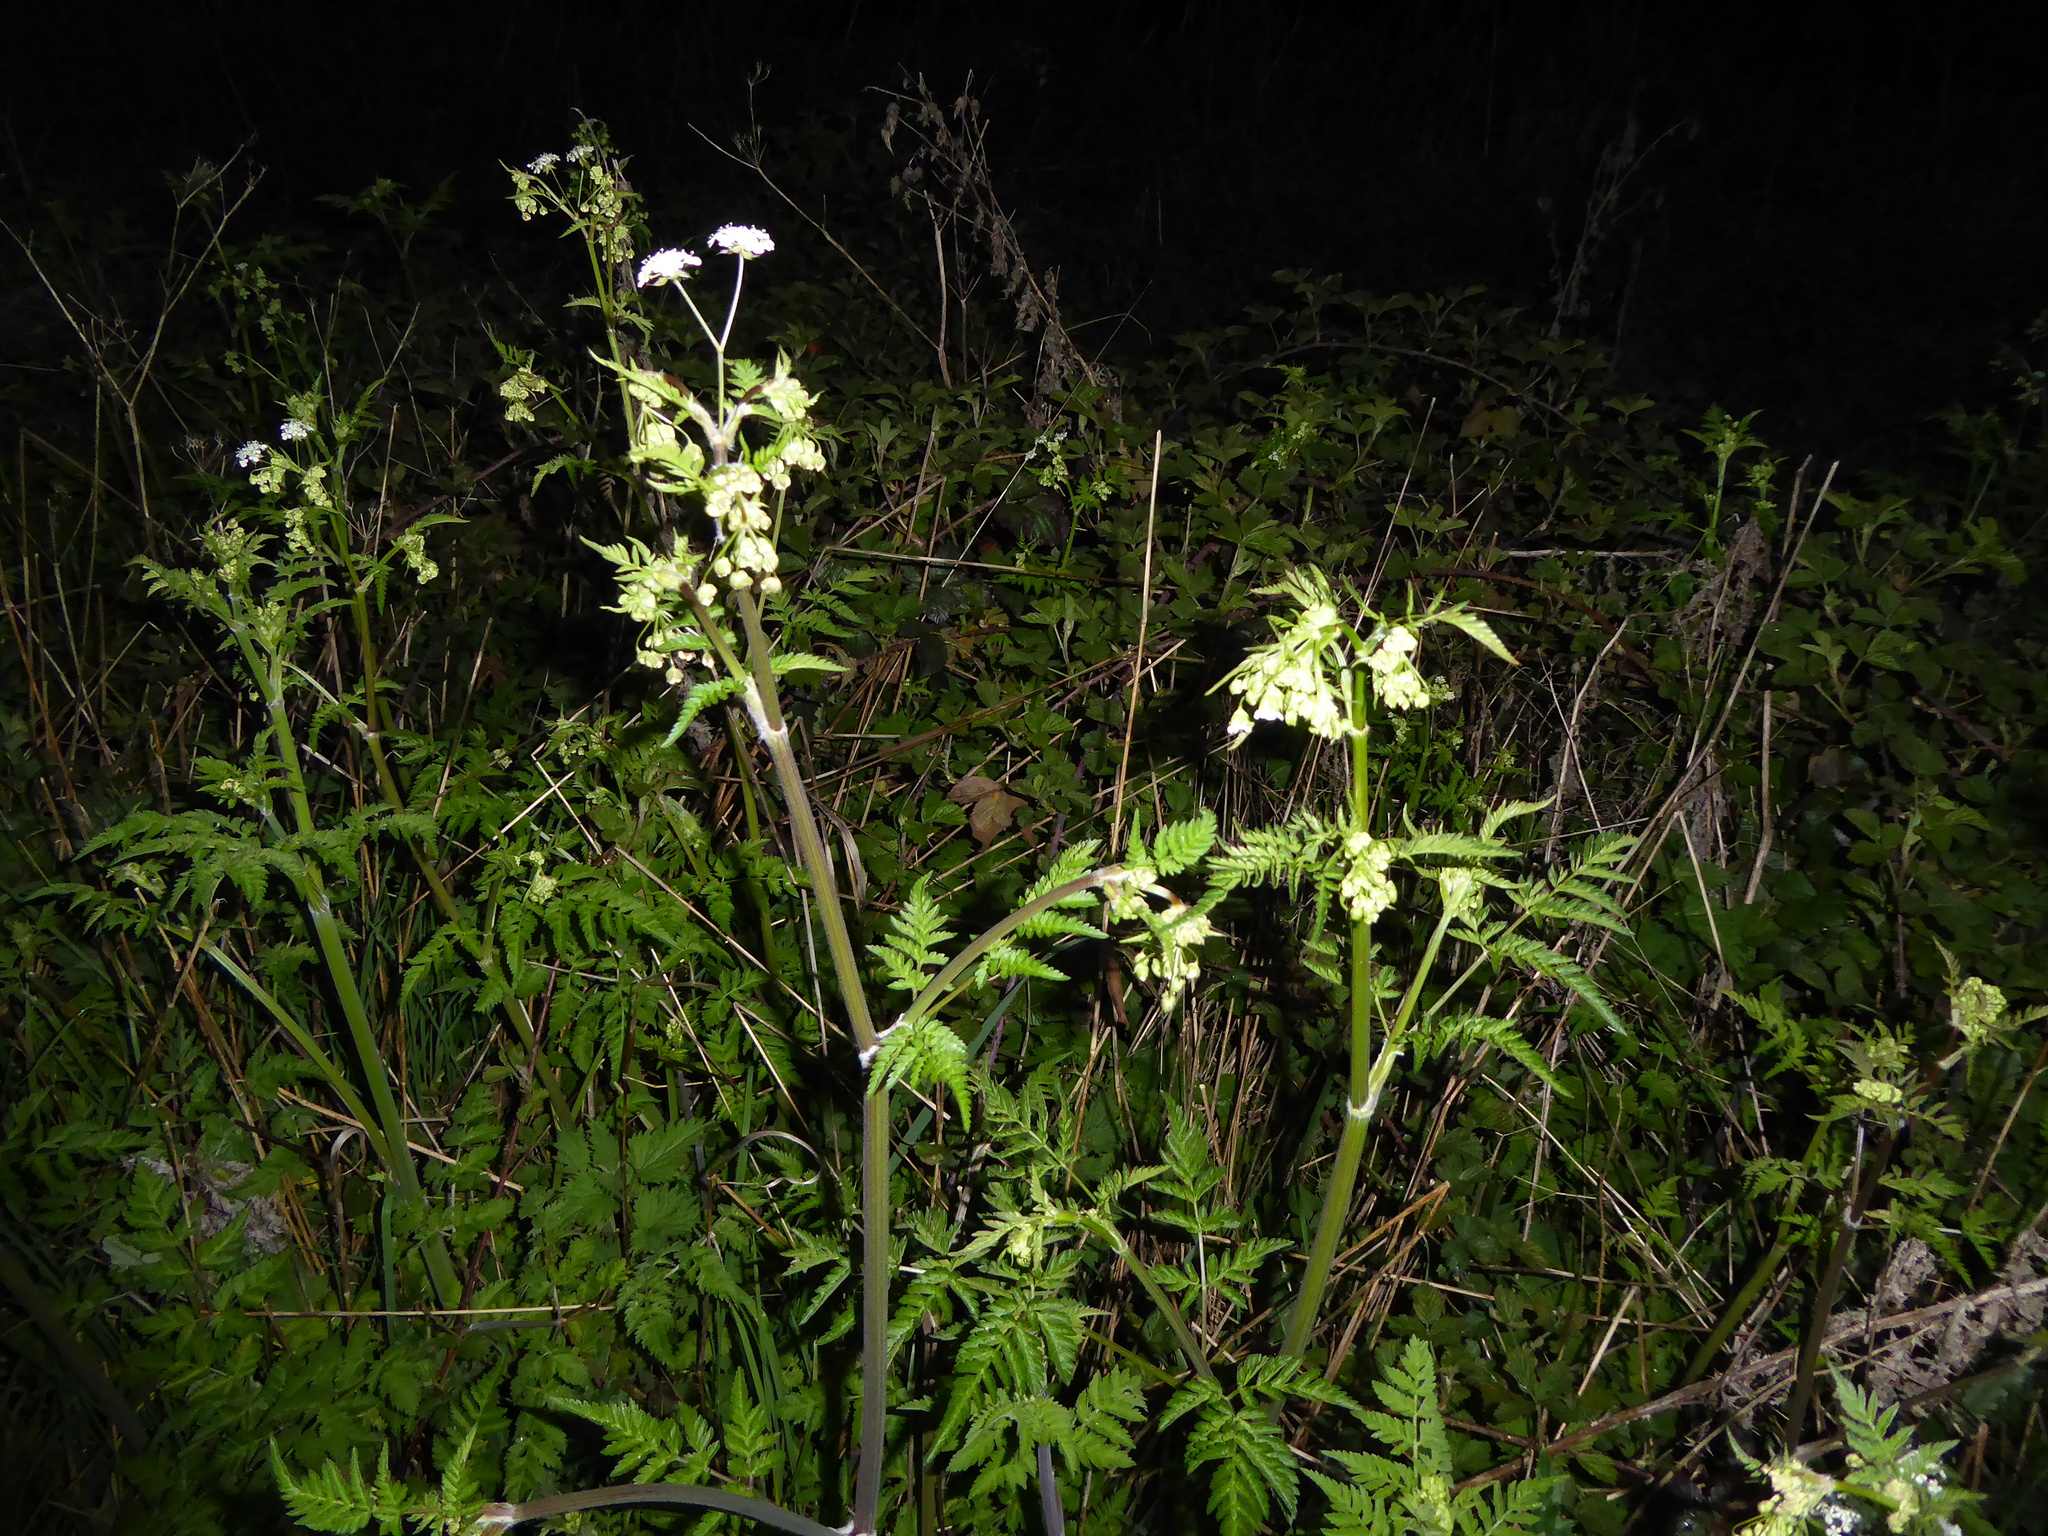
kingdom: Plantae
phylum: Tracheophyta
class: Magnoliopsida
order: Apiales
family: Apiaceae
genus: Anthriscus
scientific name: Anthriscus sylvestris
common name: Cow parsley
